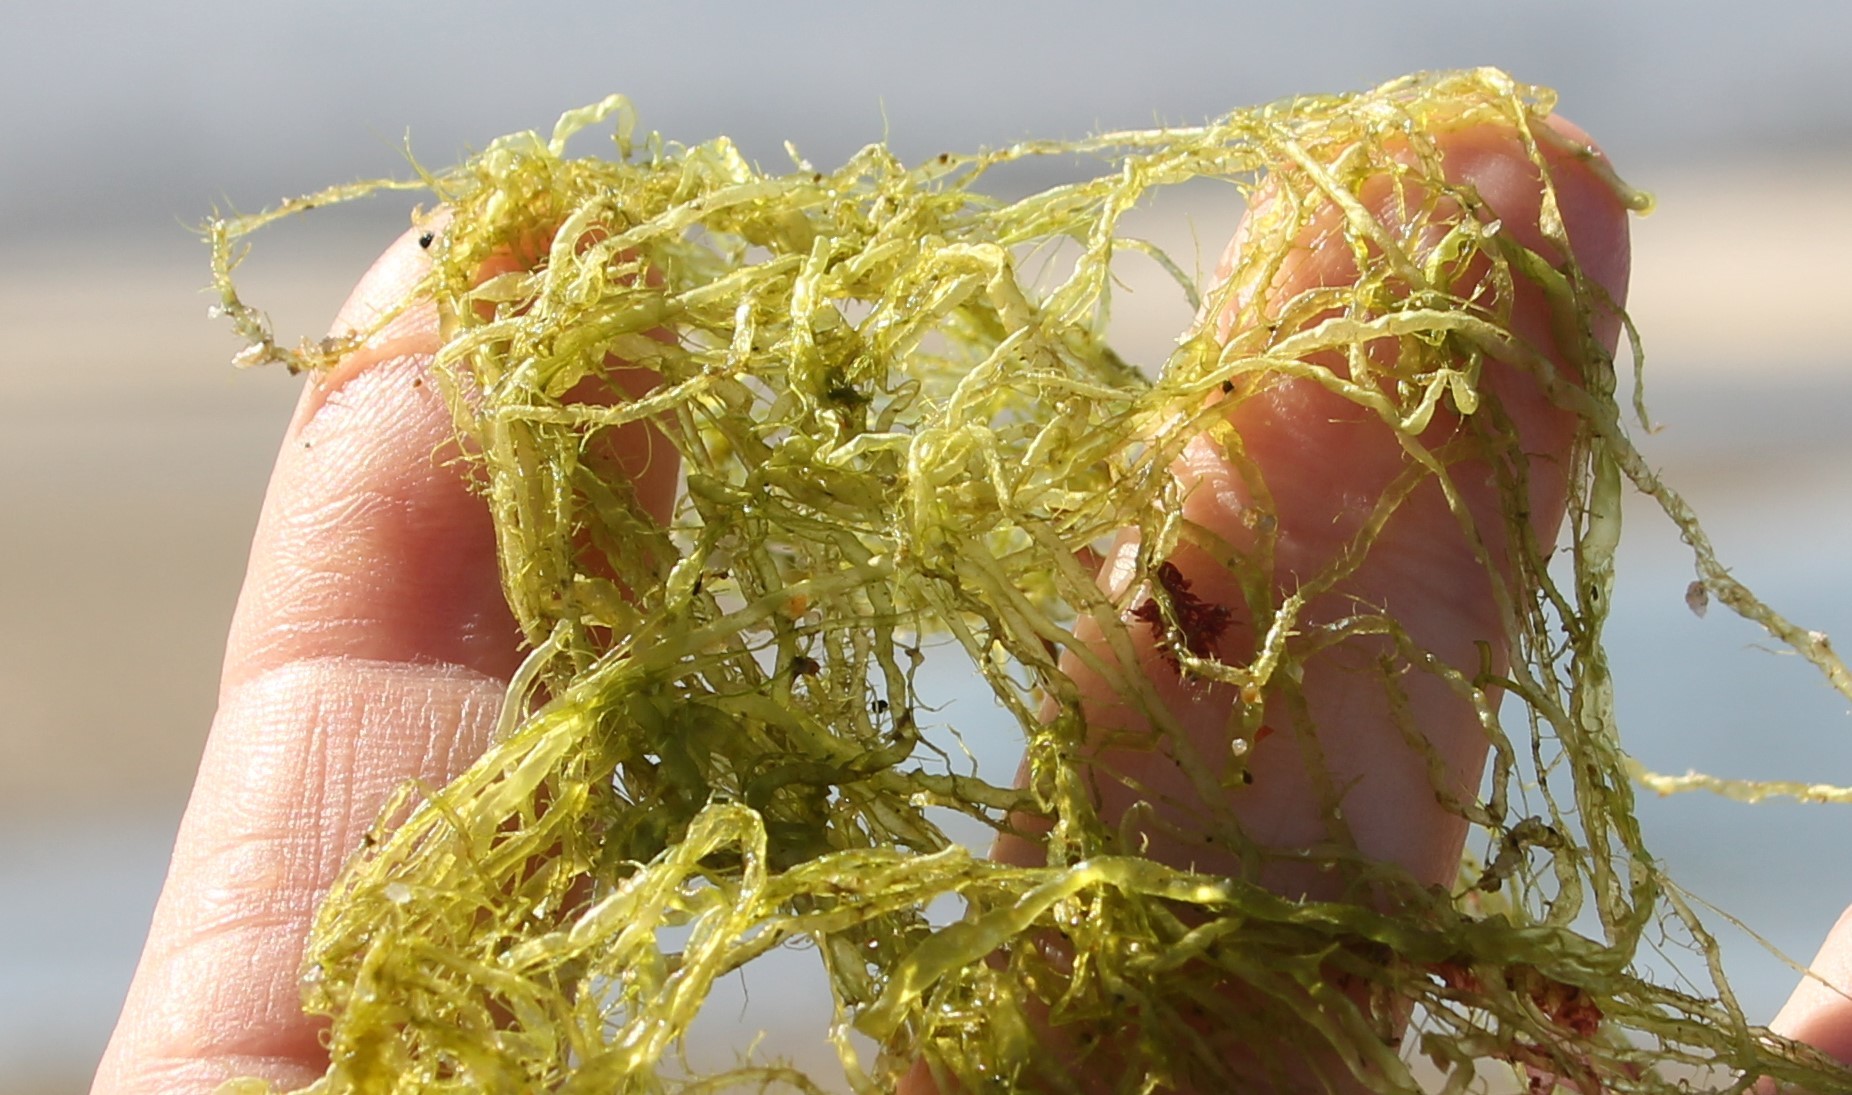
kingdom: Plantae
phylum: Chlorophyta
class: Ulvophyceae
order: Ulvales
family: Ulvaceae
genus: Ulva
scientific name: Ulva intestinalis
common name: Gut weed
